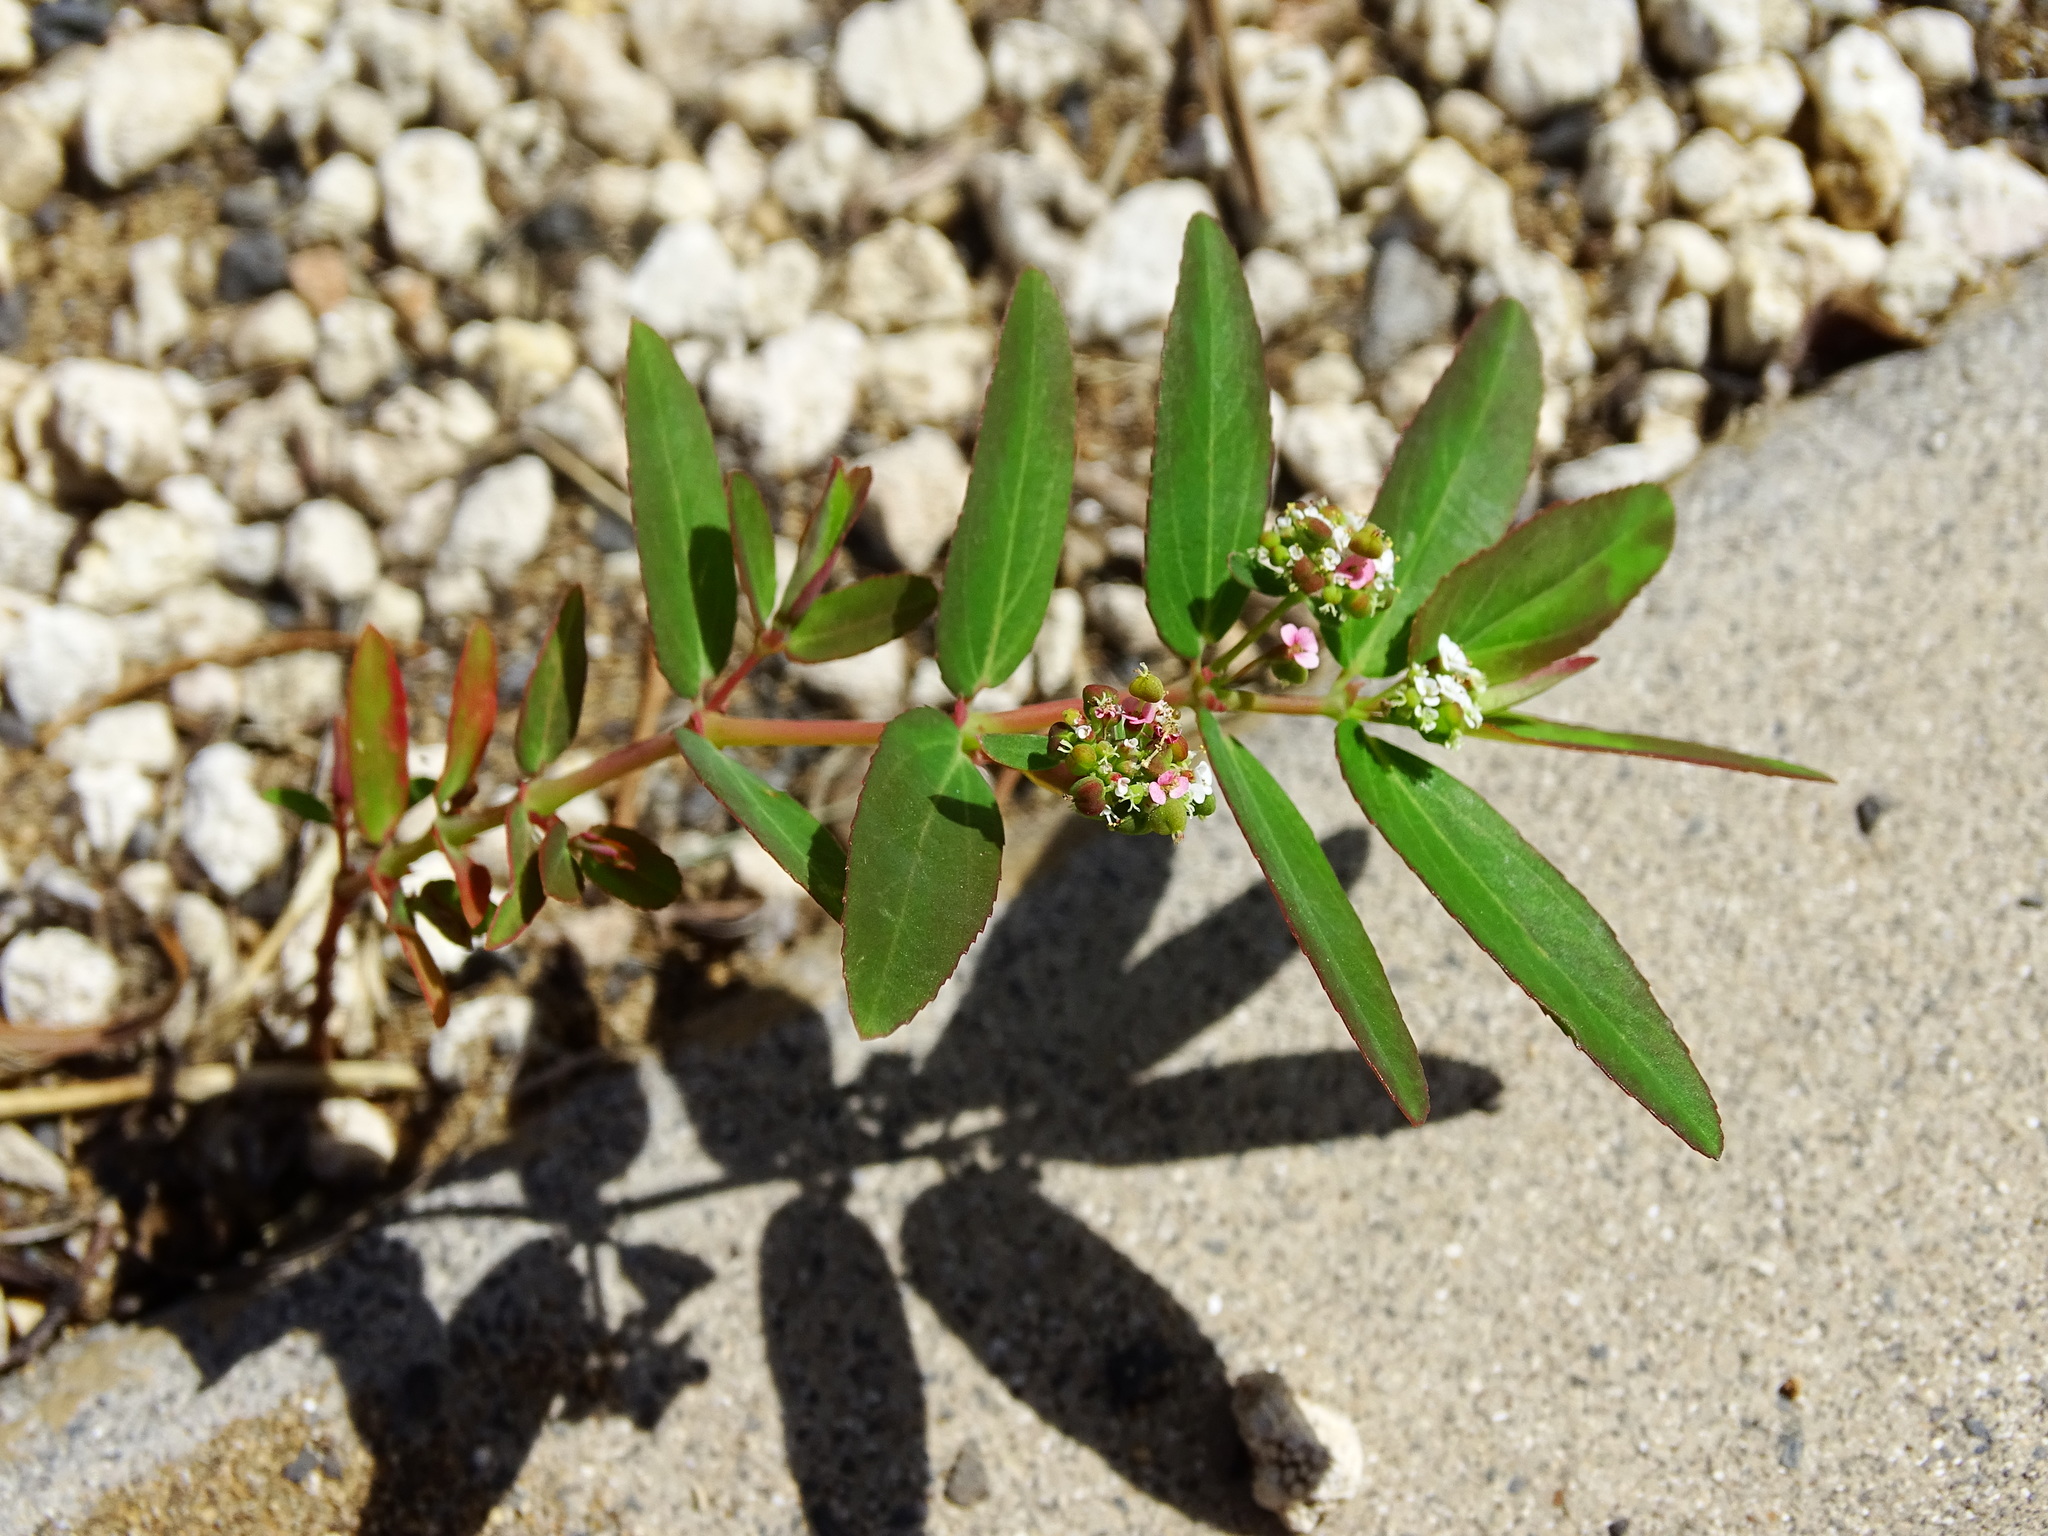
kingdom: Plantae
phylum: Tracheophyta
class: Magnoliopsida
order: Malpighiales
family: Euphorbiaceae
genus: Euphorbia
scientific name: Euphorbia hypericifolia
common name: Graceful sandmat
